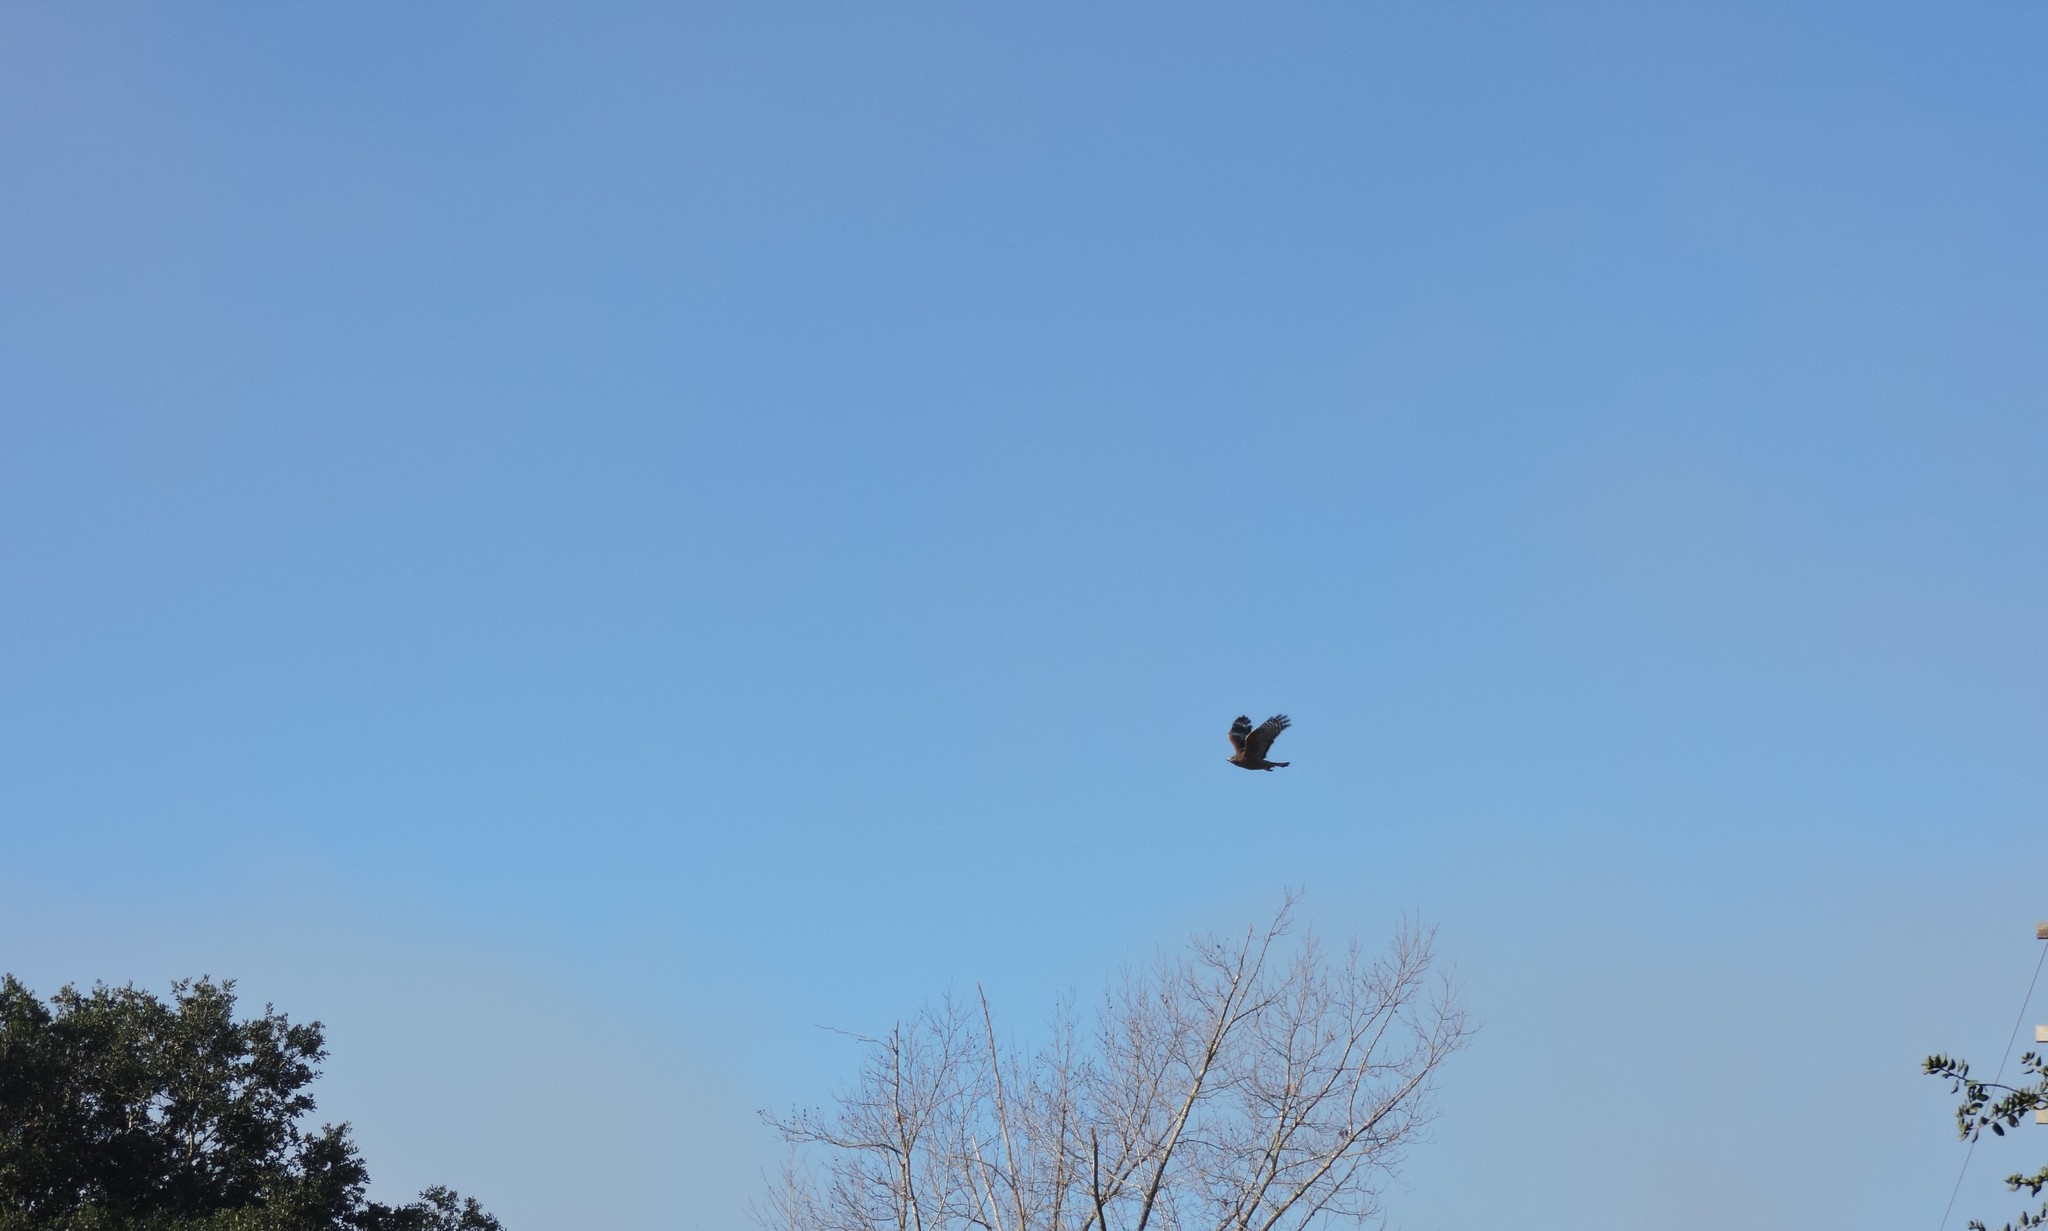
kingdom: Animalia
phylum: Chordata
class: Aves
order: Accipitriformes
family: Accipitridae
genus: Buteo
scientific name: Buteo lineatus
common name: Red-shouldered hawk
